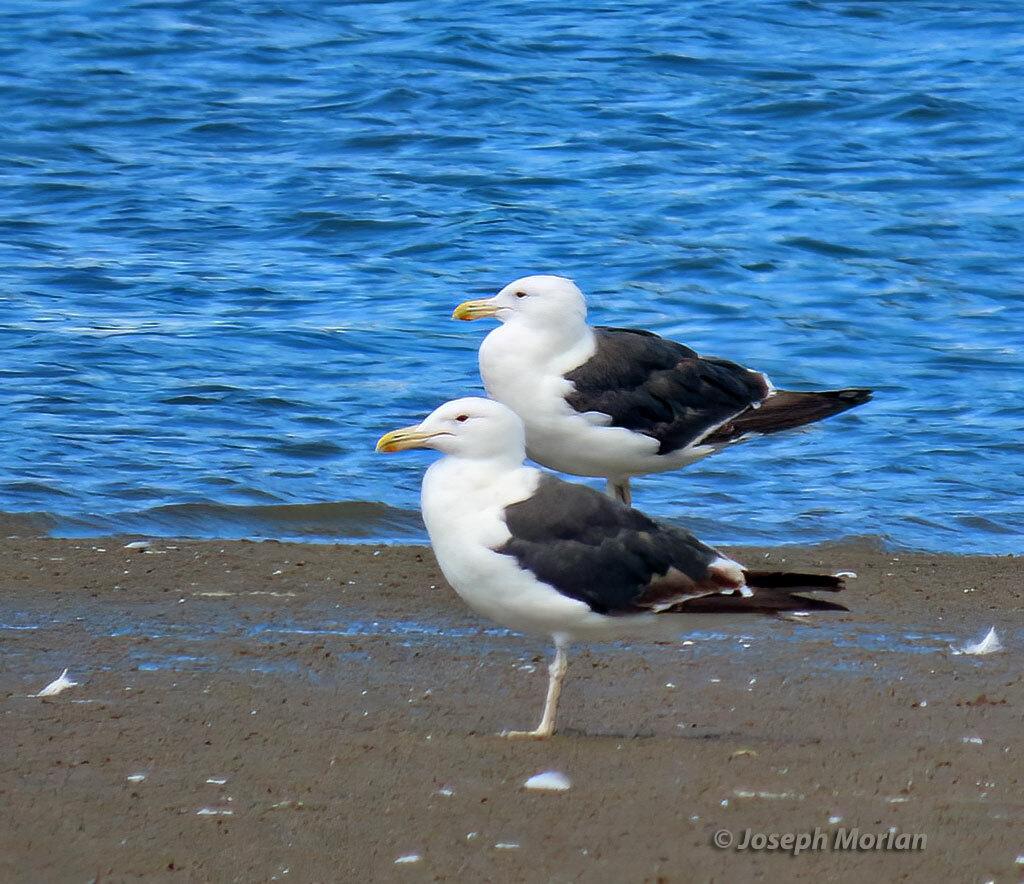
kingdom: Animalia
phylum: Chordata
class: Aves
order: Charadriiformes
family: Laridae
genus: Larus
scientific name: Larus dominicanus
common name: Kelp gull
